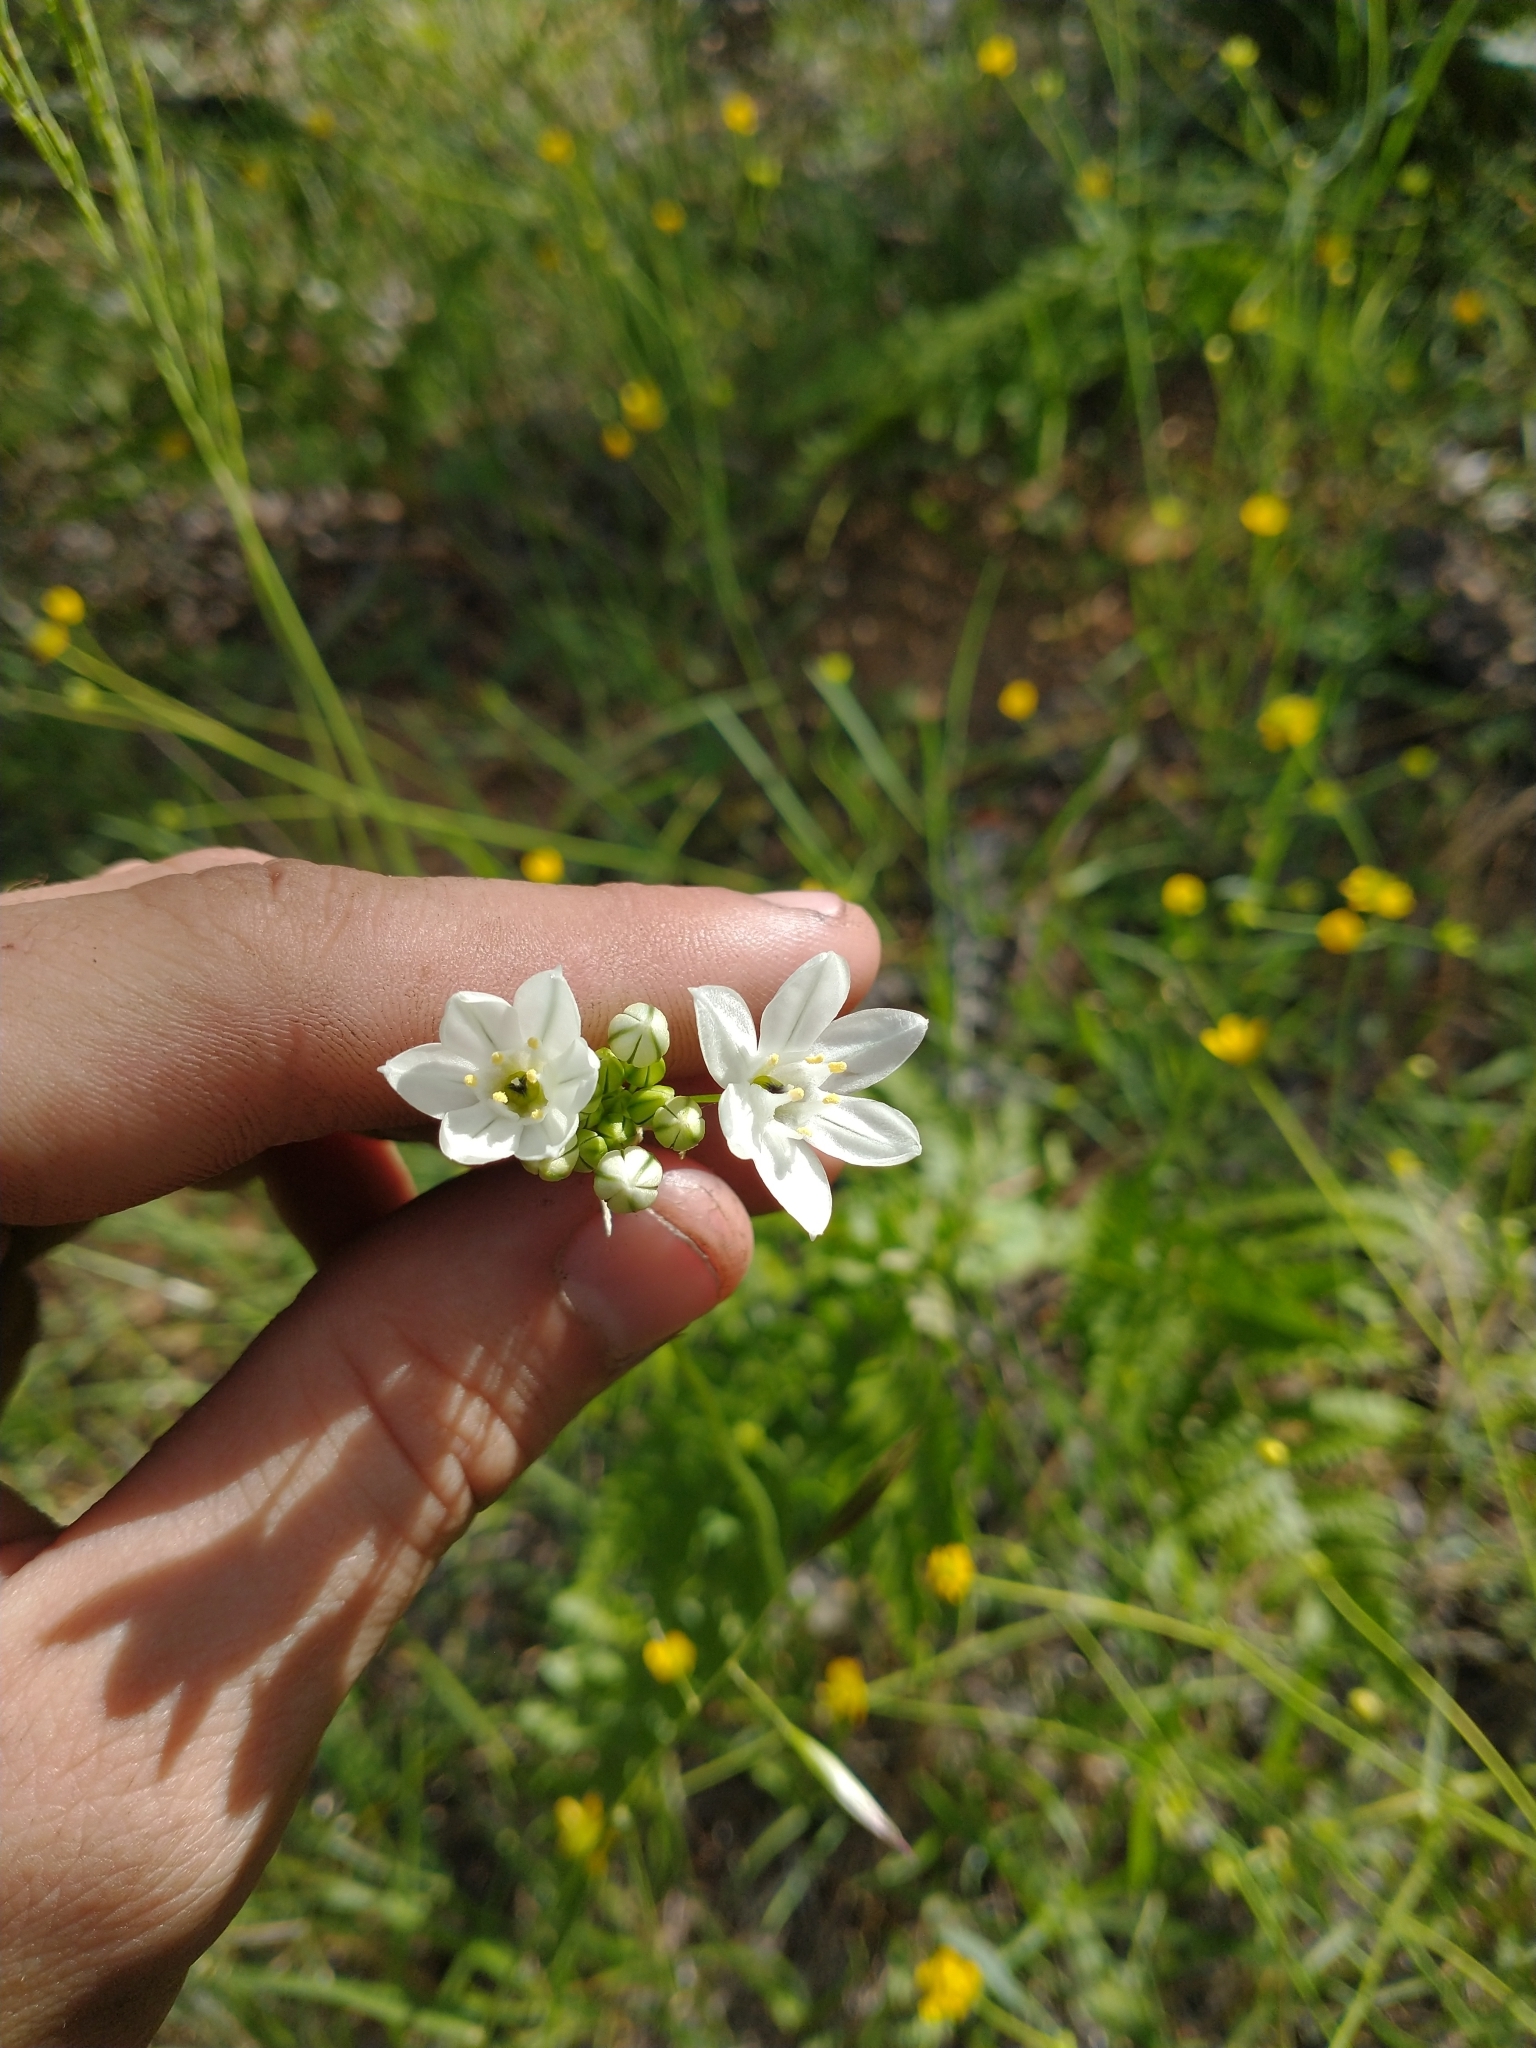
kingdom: Plantae
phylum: Tracheophyta
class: Liliopsida
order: Asparagales
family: Asparagaceae
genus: Triteleia
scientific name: Triteleia hyacinthina
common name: White brodiaea
